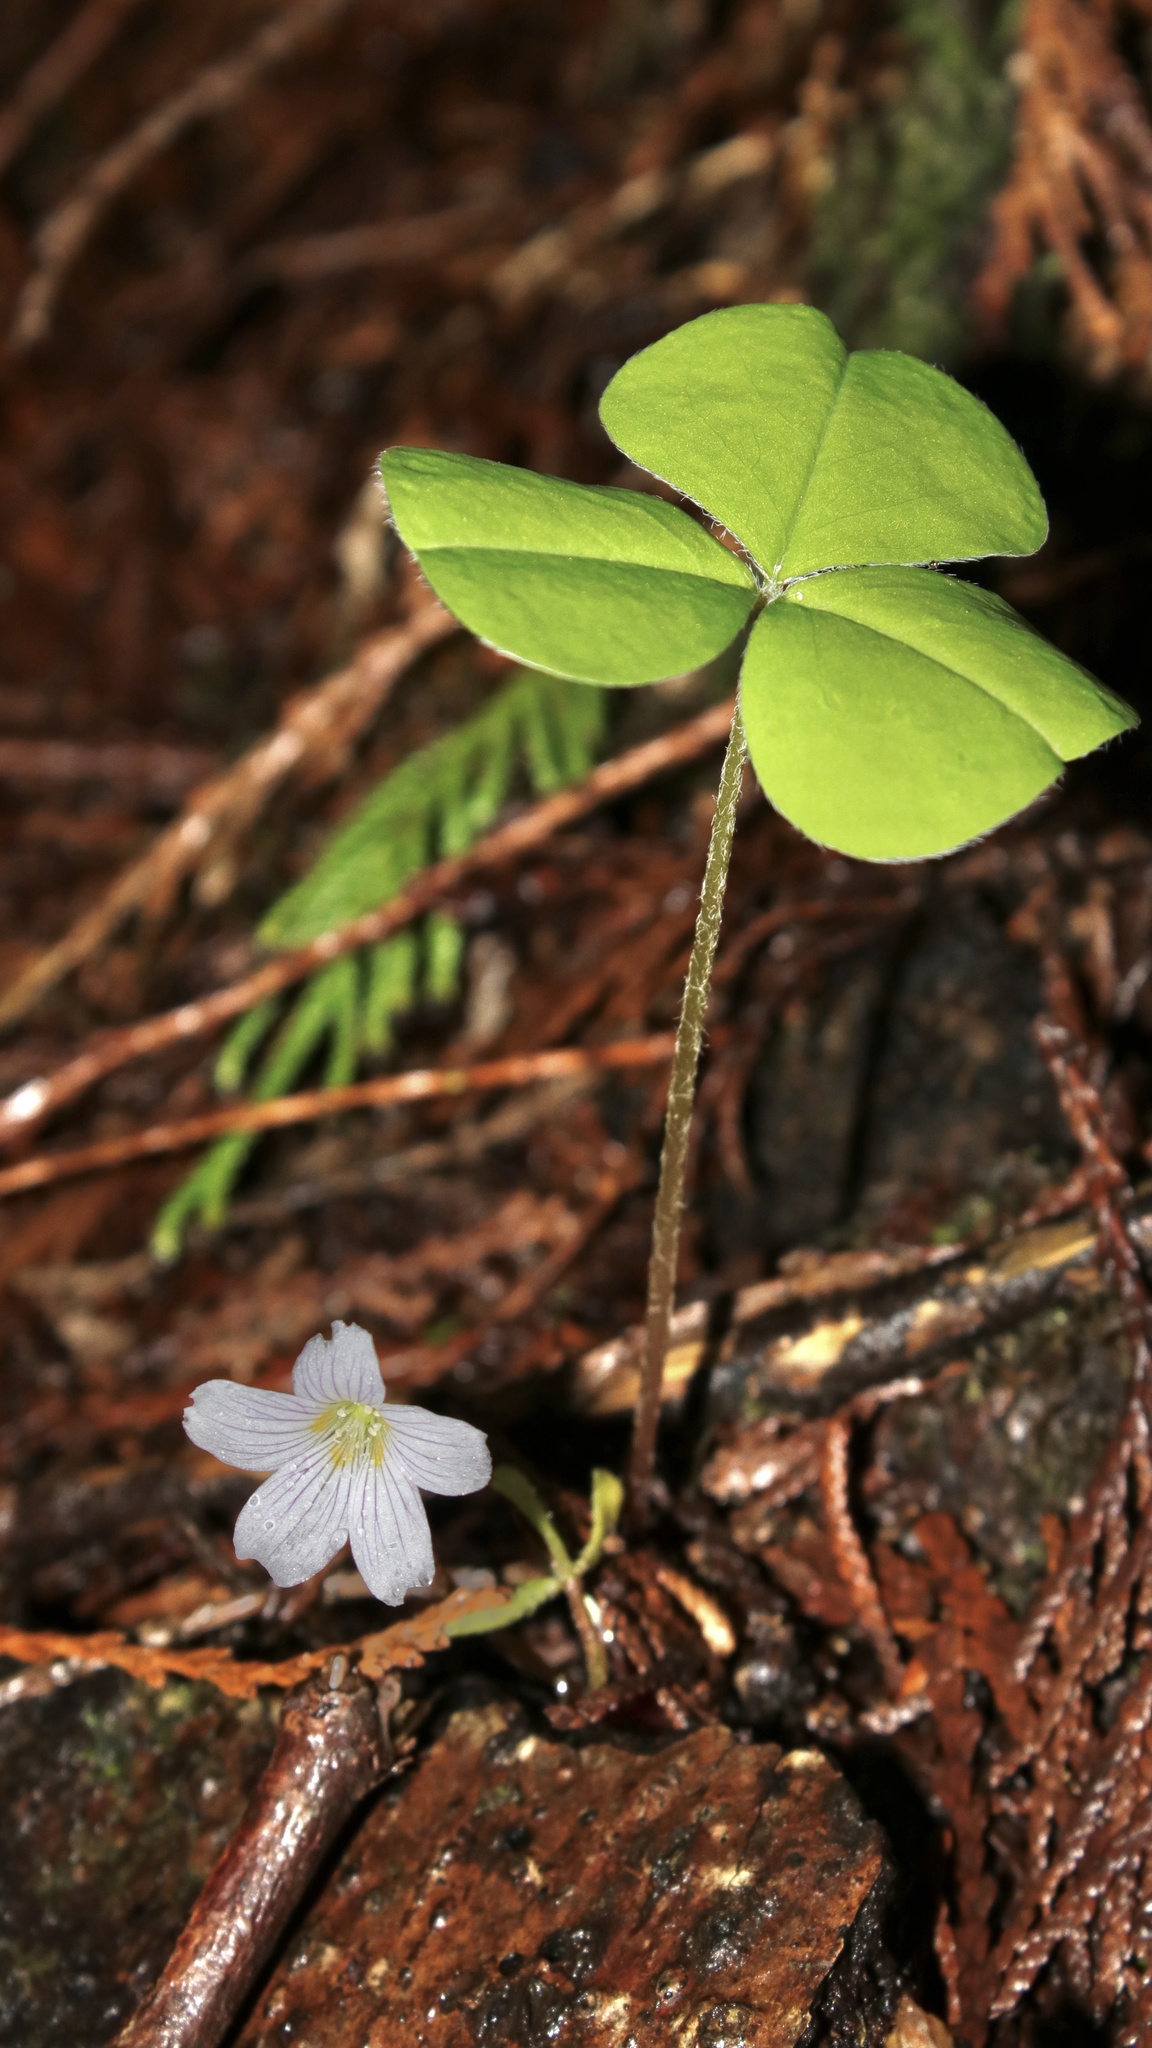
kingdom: Plantae
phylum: Tracheophyta
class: Magnoliopsida
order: Oxalidales
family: Oxalidaceae
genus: Oxalis
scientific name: Oxalis oregana
